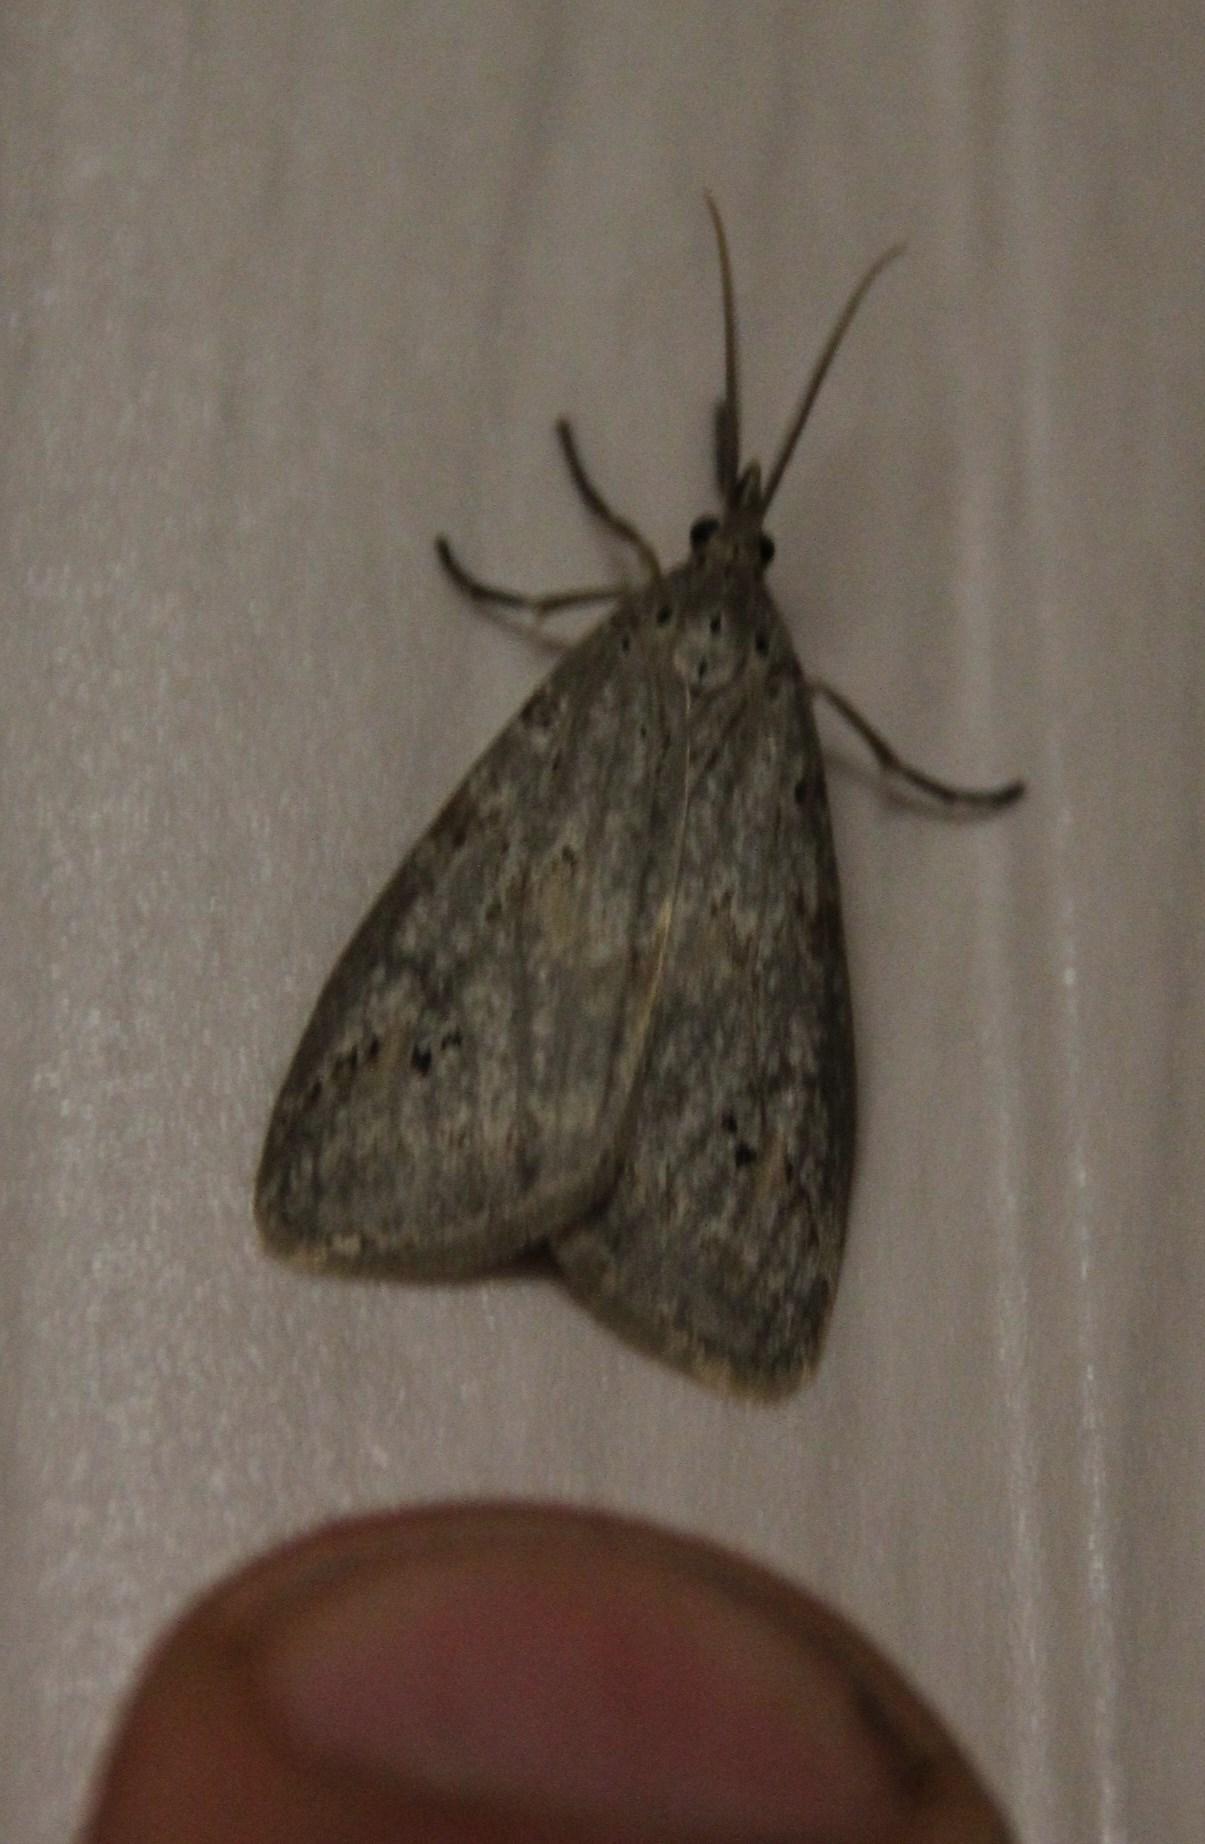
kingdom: Animalia
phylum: Arthropoda
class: Insecta
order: Lepidoptera
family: Erebidae
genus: Galtara
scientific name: Galtara rostrata
